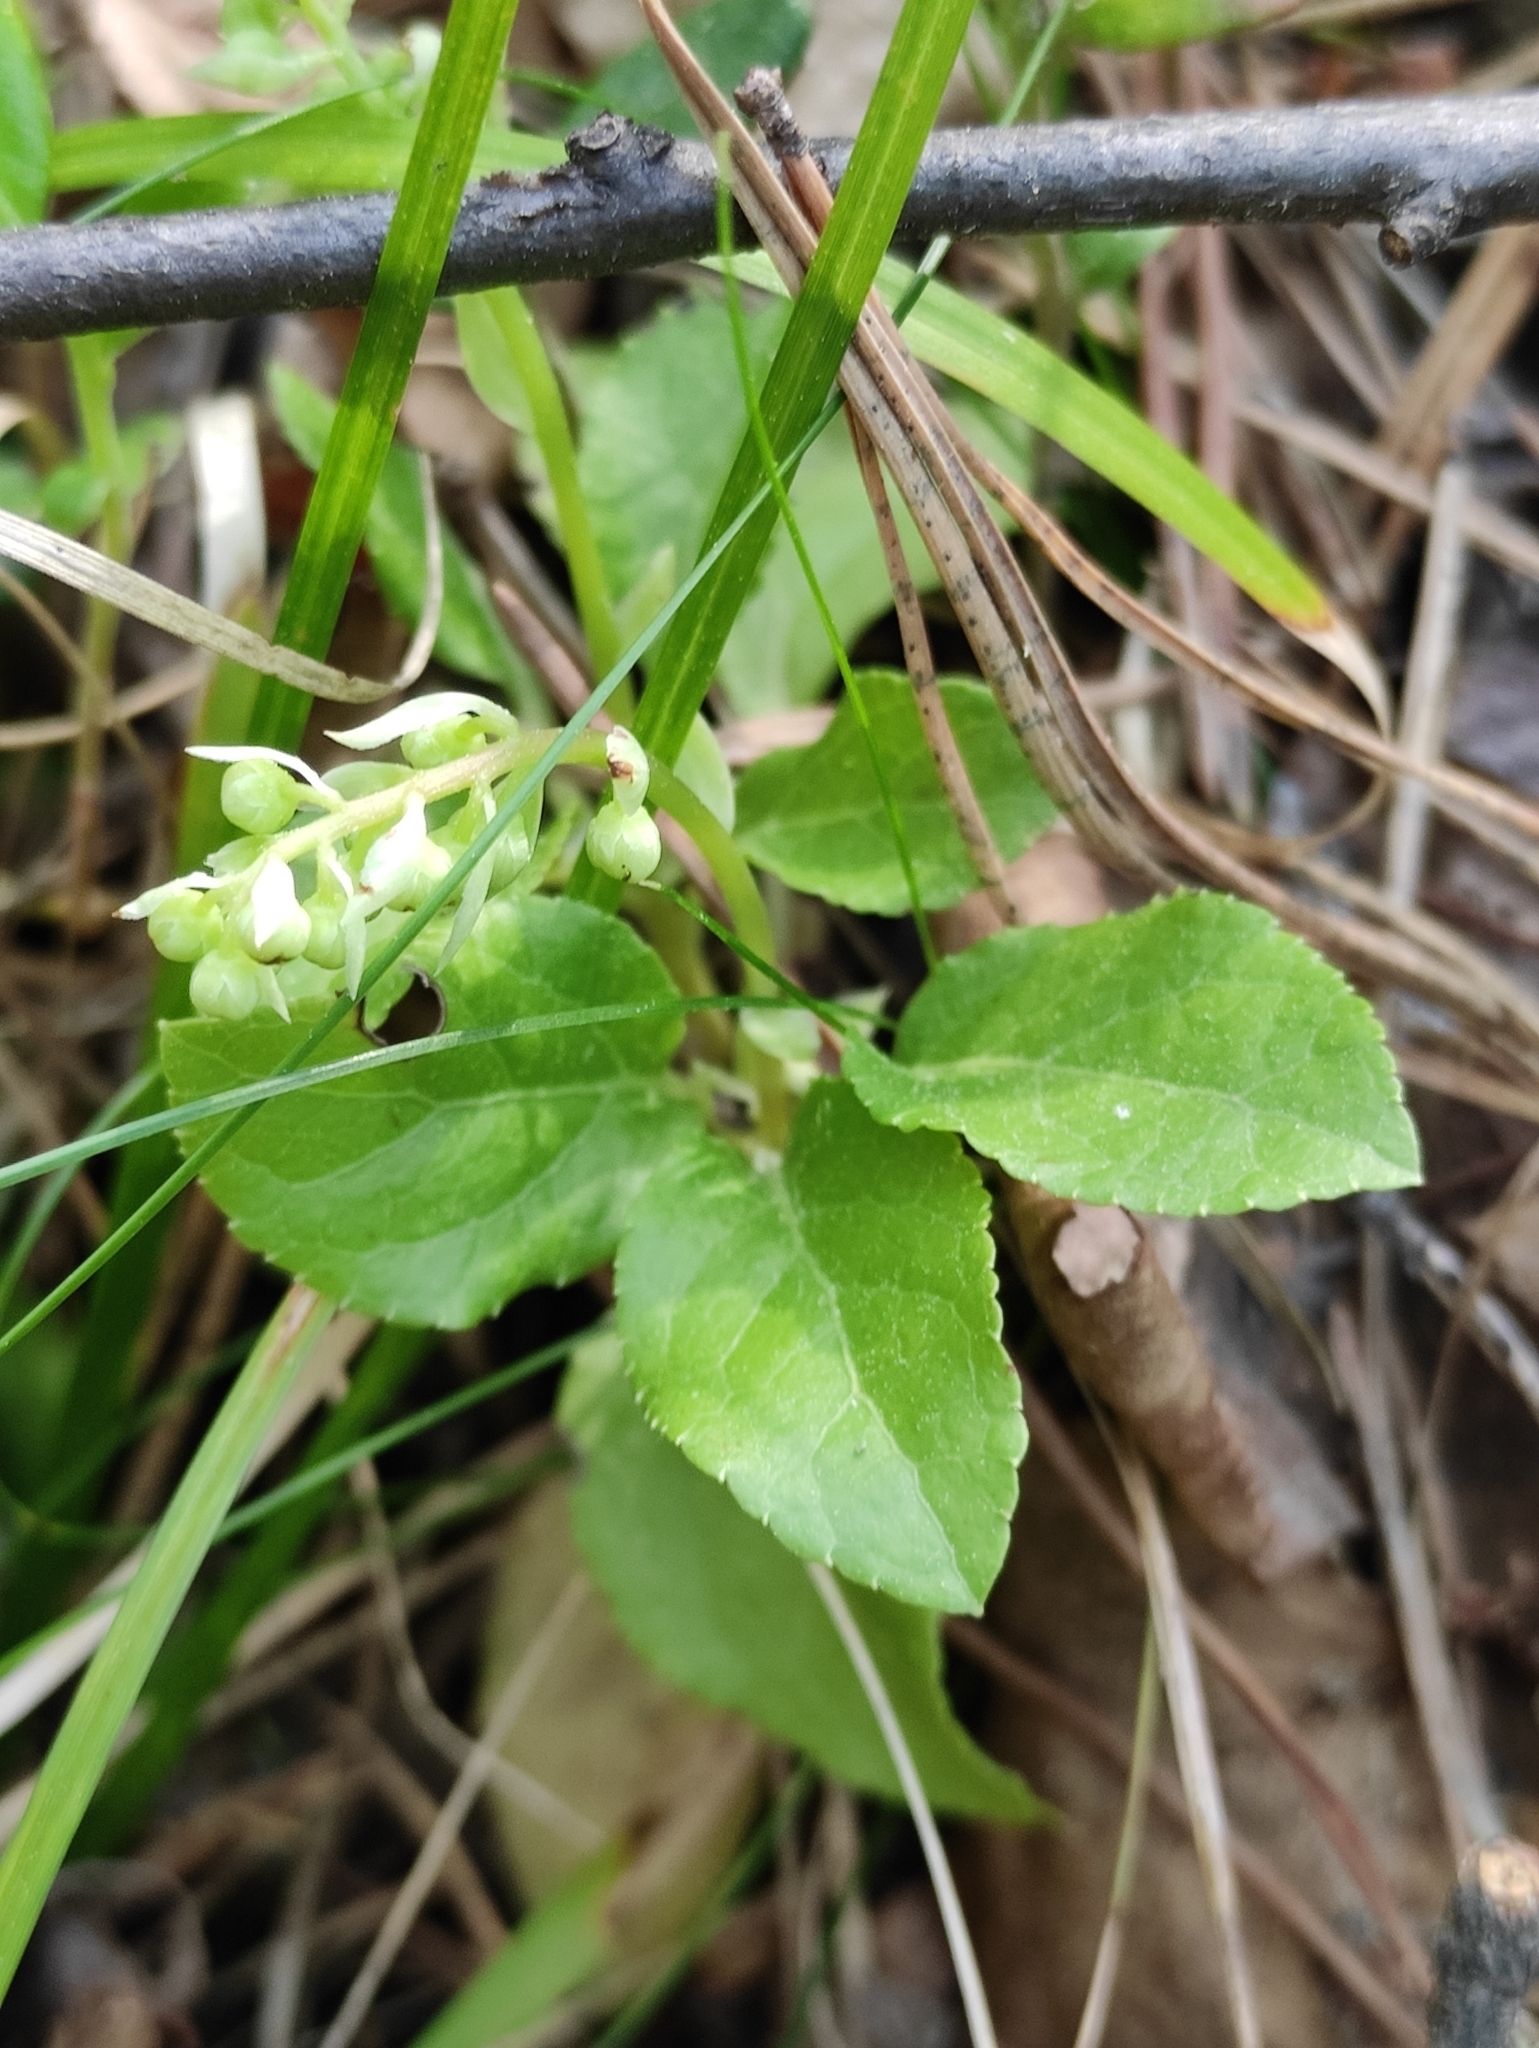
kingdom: Plantae
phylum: Tracheophyta
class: Magnoliopsida
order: Ericales
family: Ericaceae
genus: Orthilia
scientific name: Orthilia secunda
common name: One-sided orthilia
